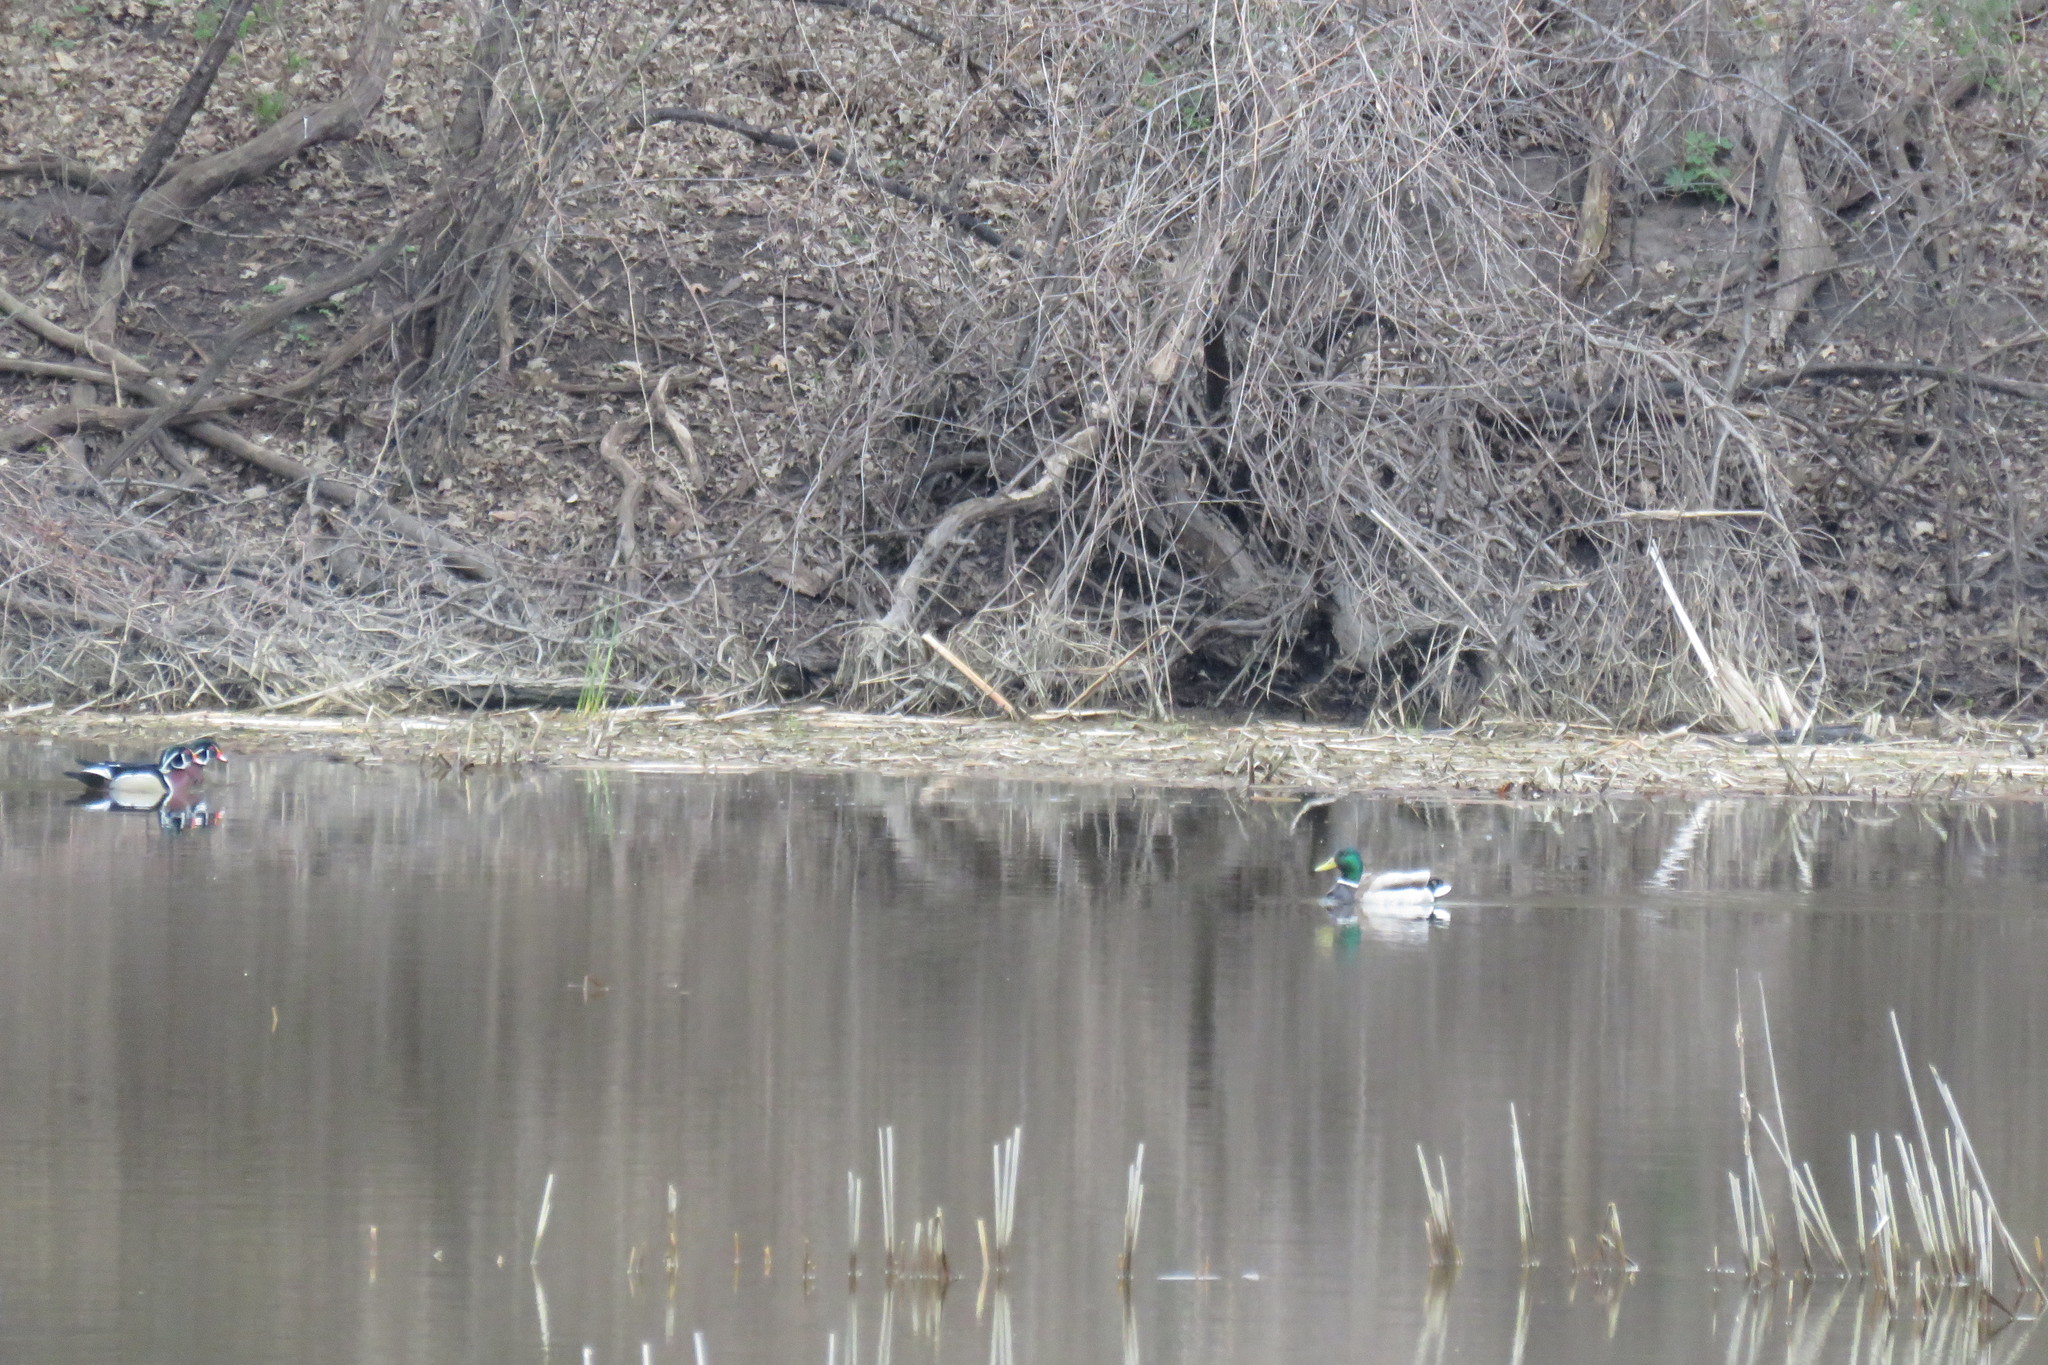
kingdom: Animalia
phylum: Chordata
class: Aves
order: Anseriformes
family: Anatidae
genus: Aix
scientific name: Aix sponsa
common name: Wood duck
